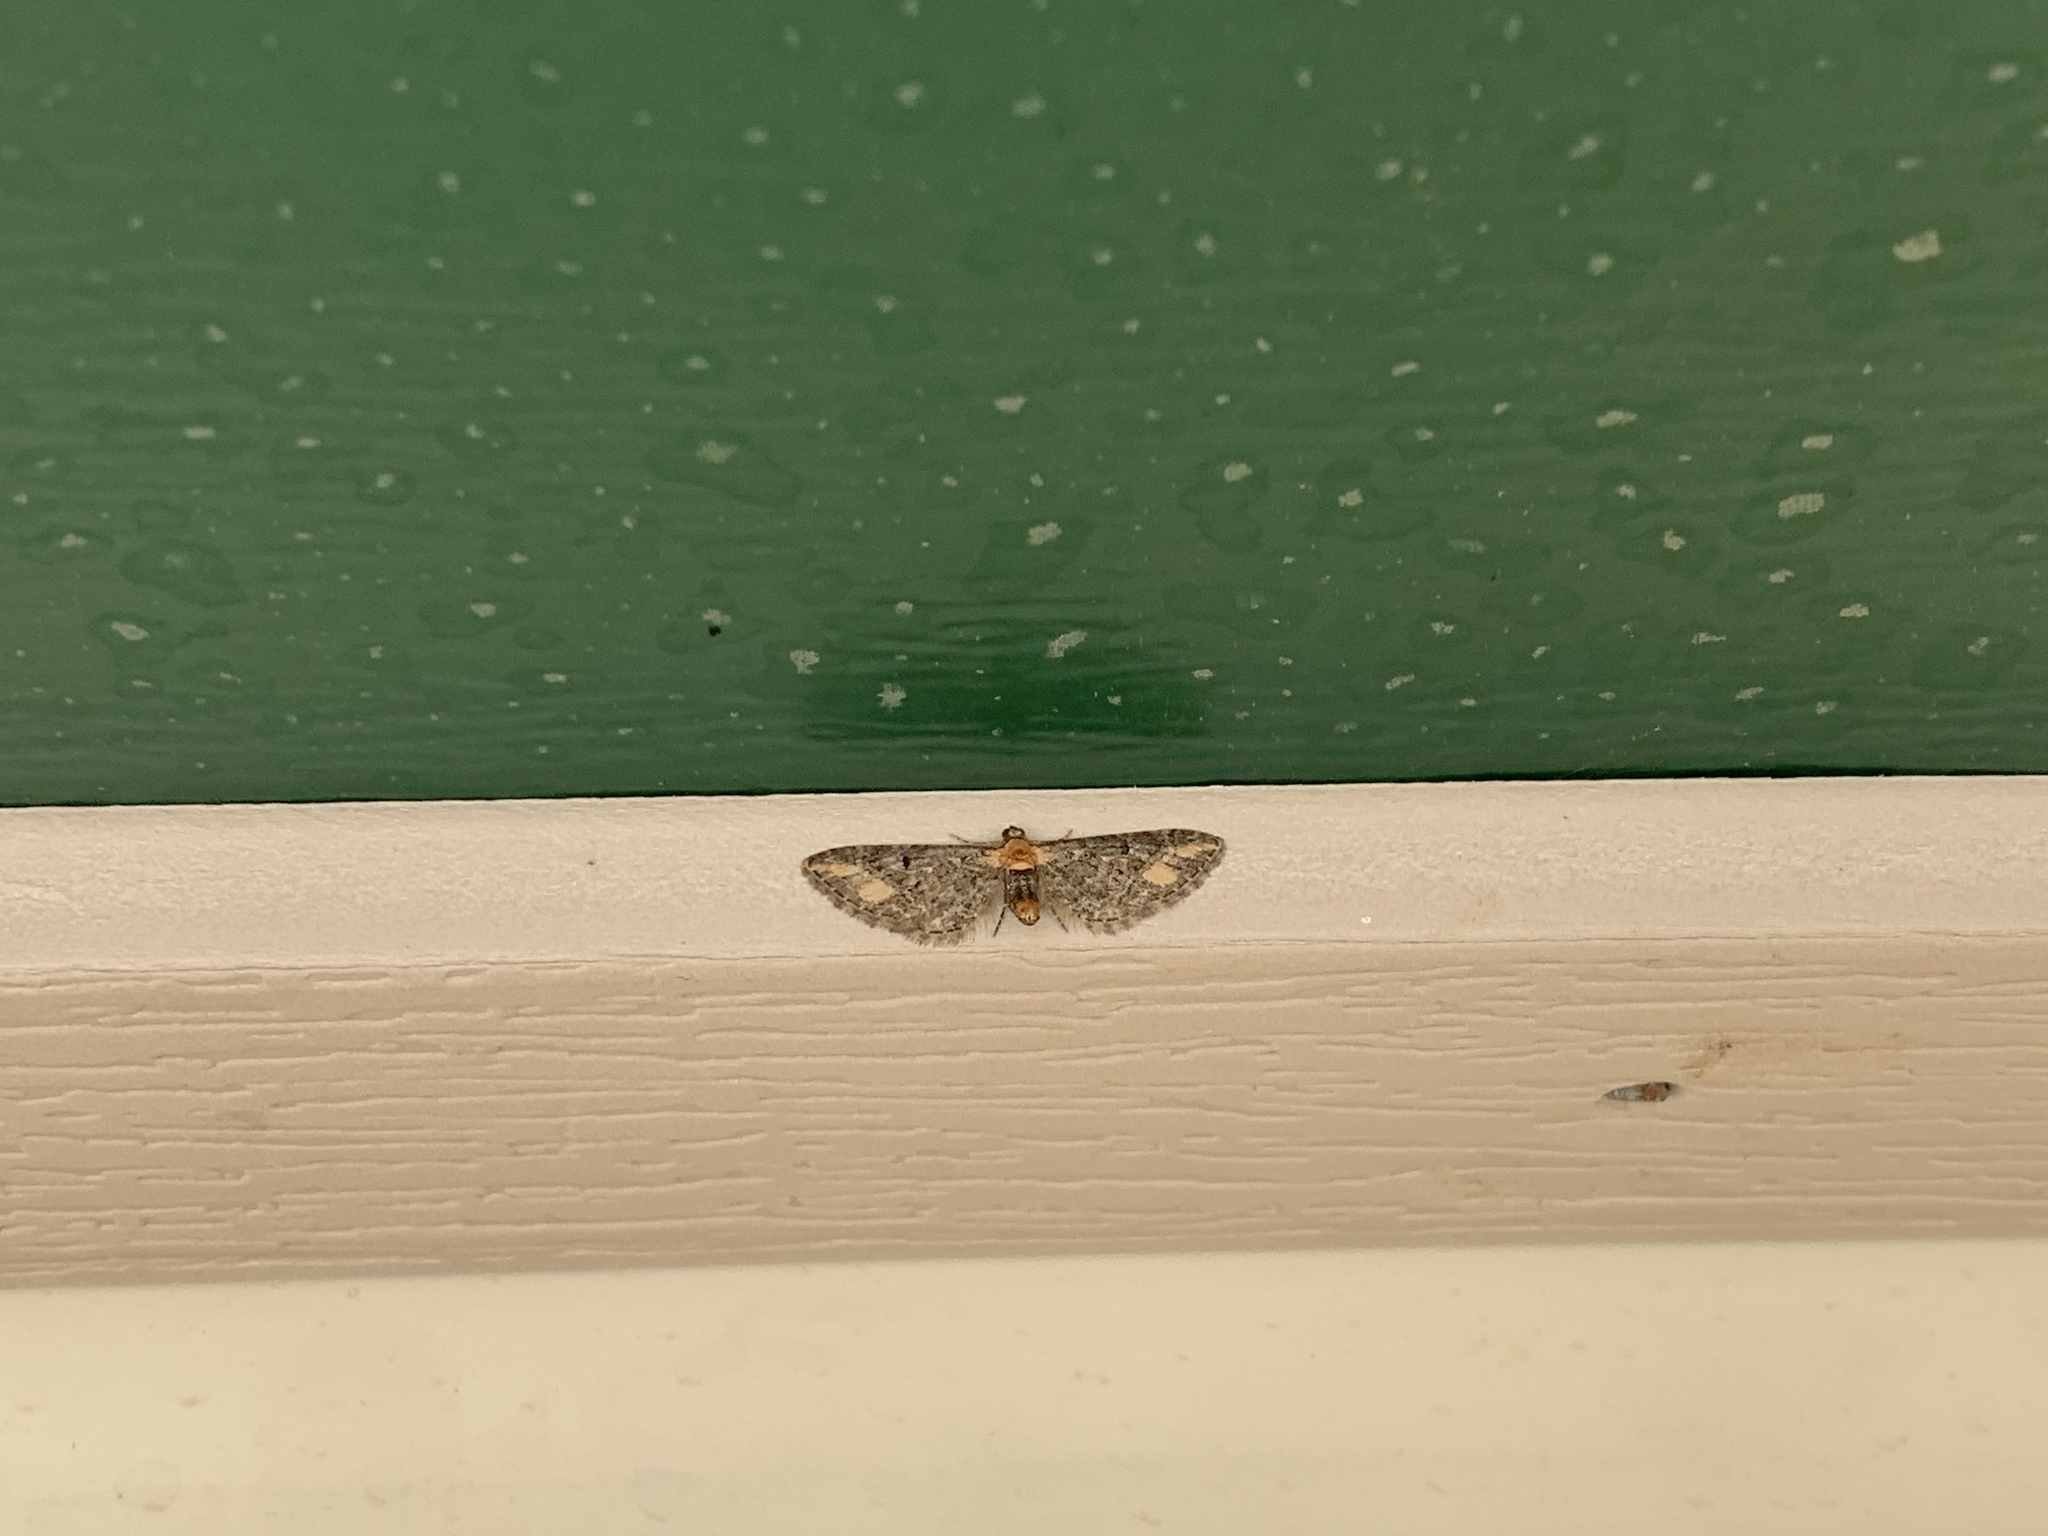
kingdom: Animalia
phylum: Arthropoda
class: Insecta
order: Lepidoptera
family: Geometridae
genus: Eupithecia
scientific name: Eupithecia flavigutta
